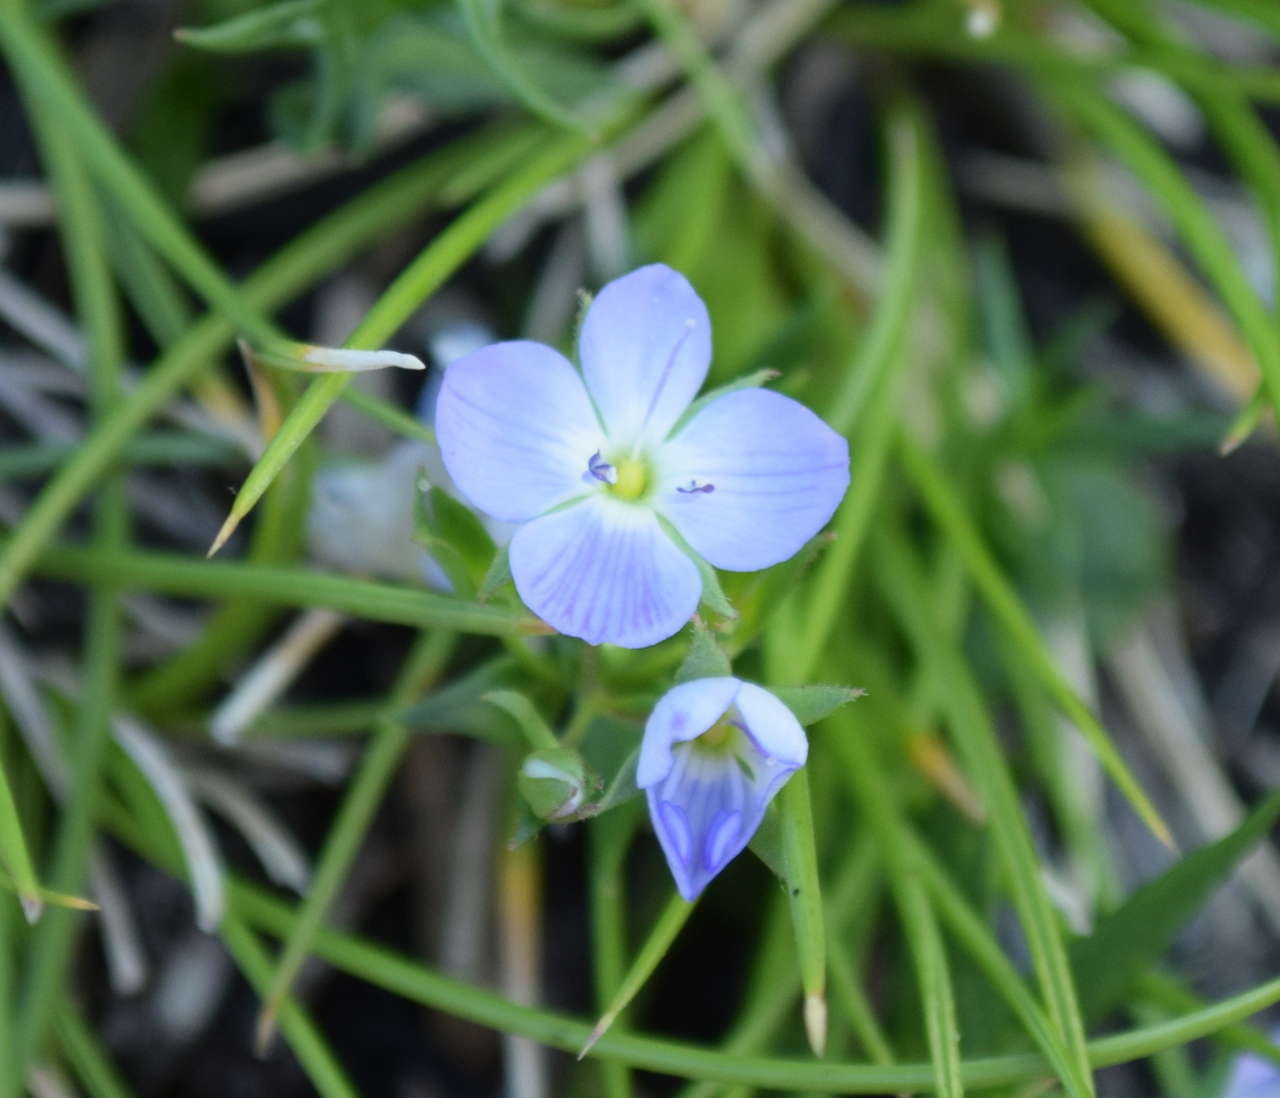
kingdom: Plantae
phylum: Tracheophyta
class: Magnoliopsida
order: Lamiales
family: Plantaginaceae
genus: Veronica
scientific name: Veronica gracilis
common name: Slender speedwell
